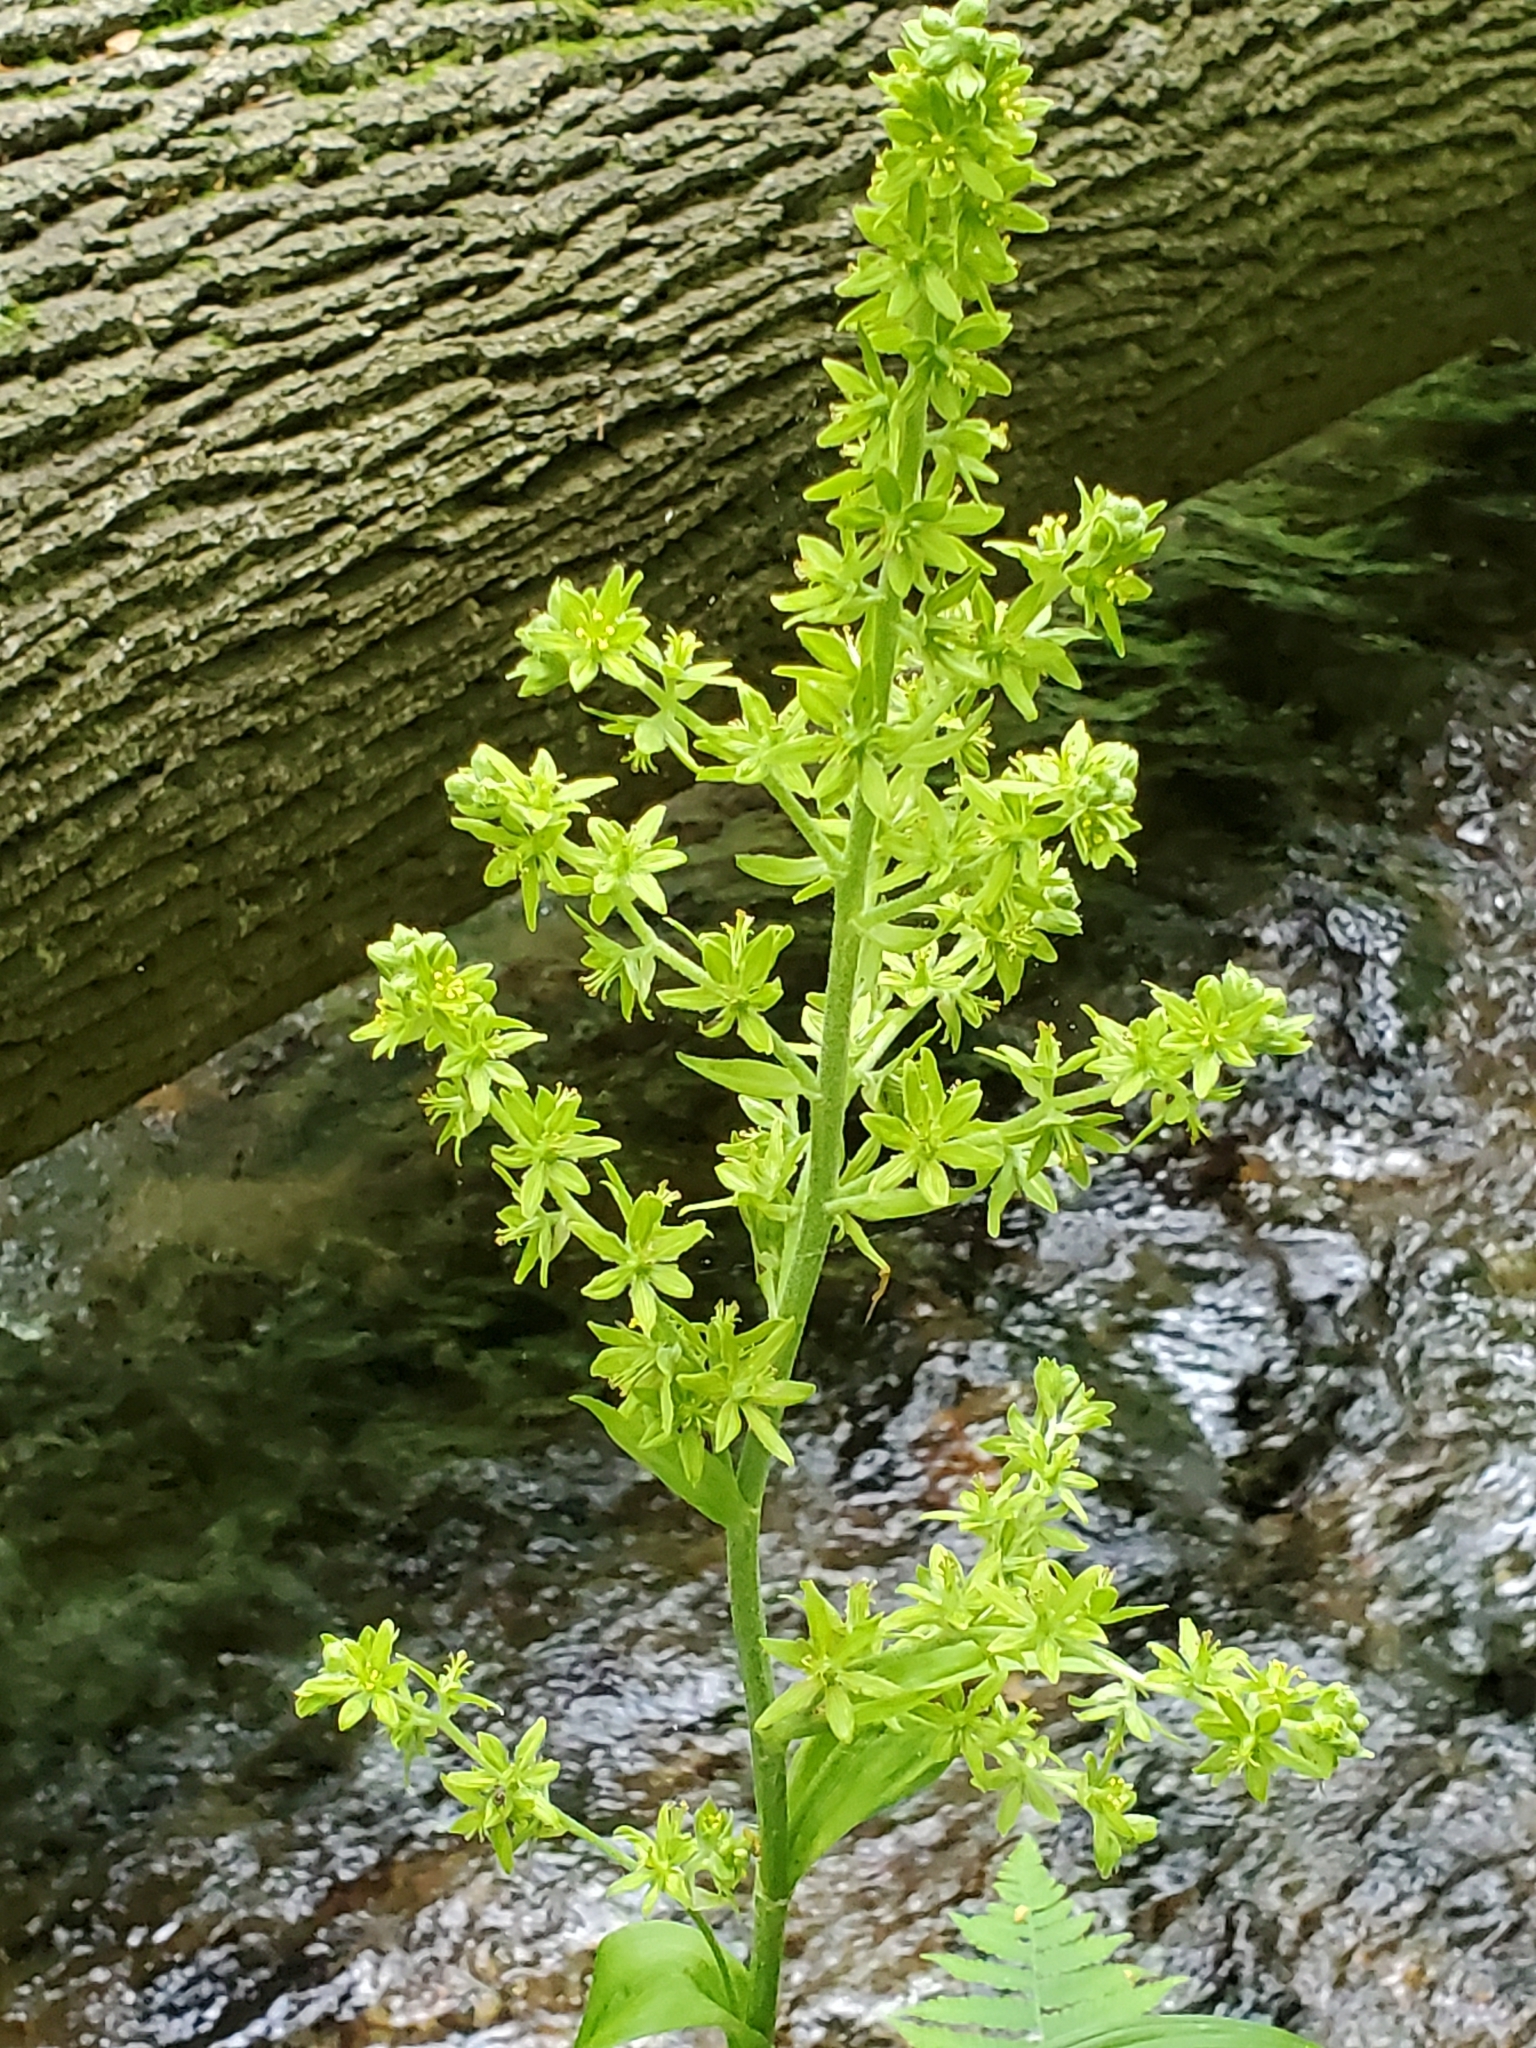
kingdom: Plantae
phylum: Tracheophyta
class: Liliopsida
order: Liliales
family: Melanthiaceae
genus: Veratrum
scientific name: Veratrum viride
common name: American false hellebore
